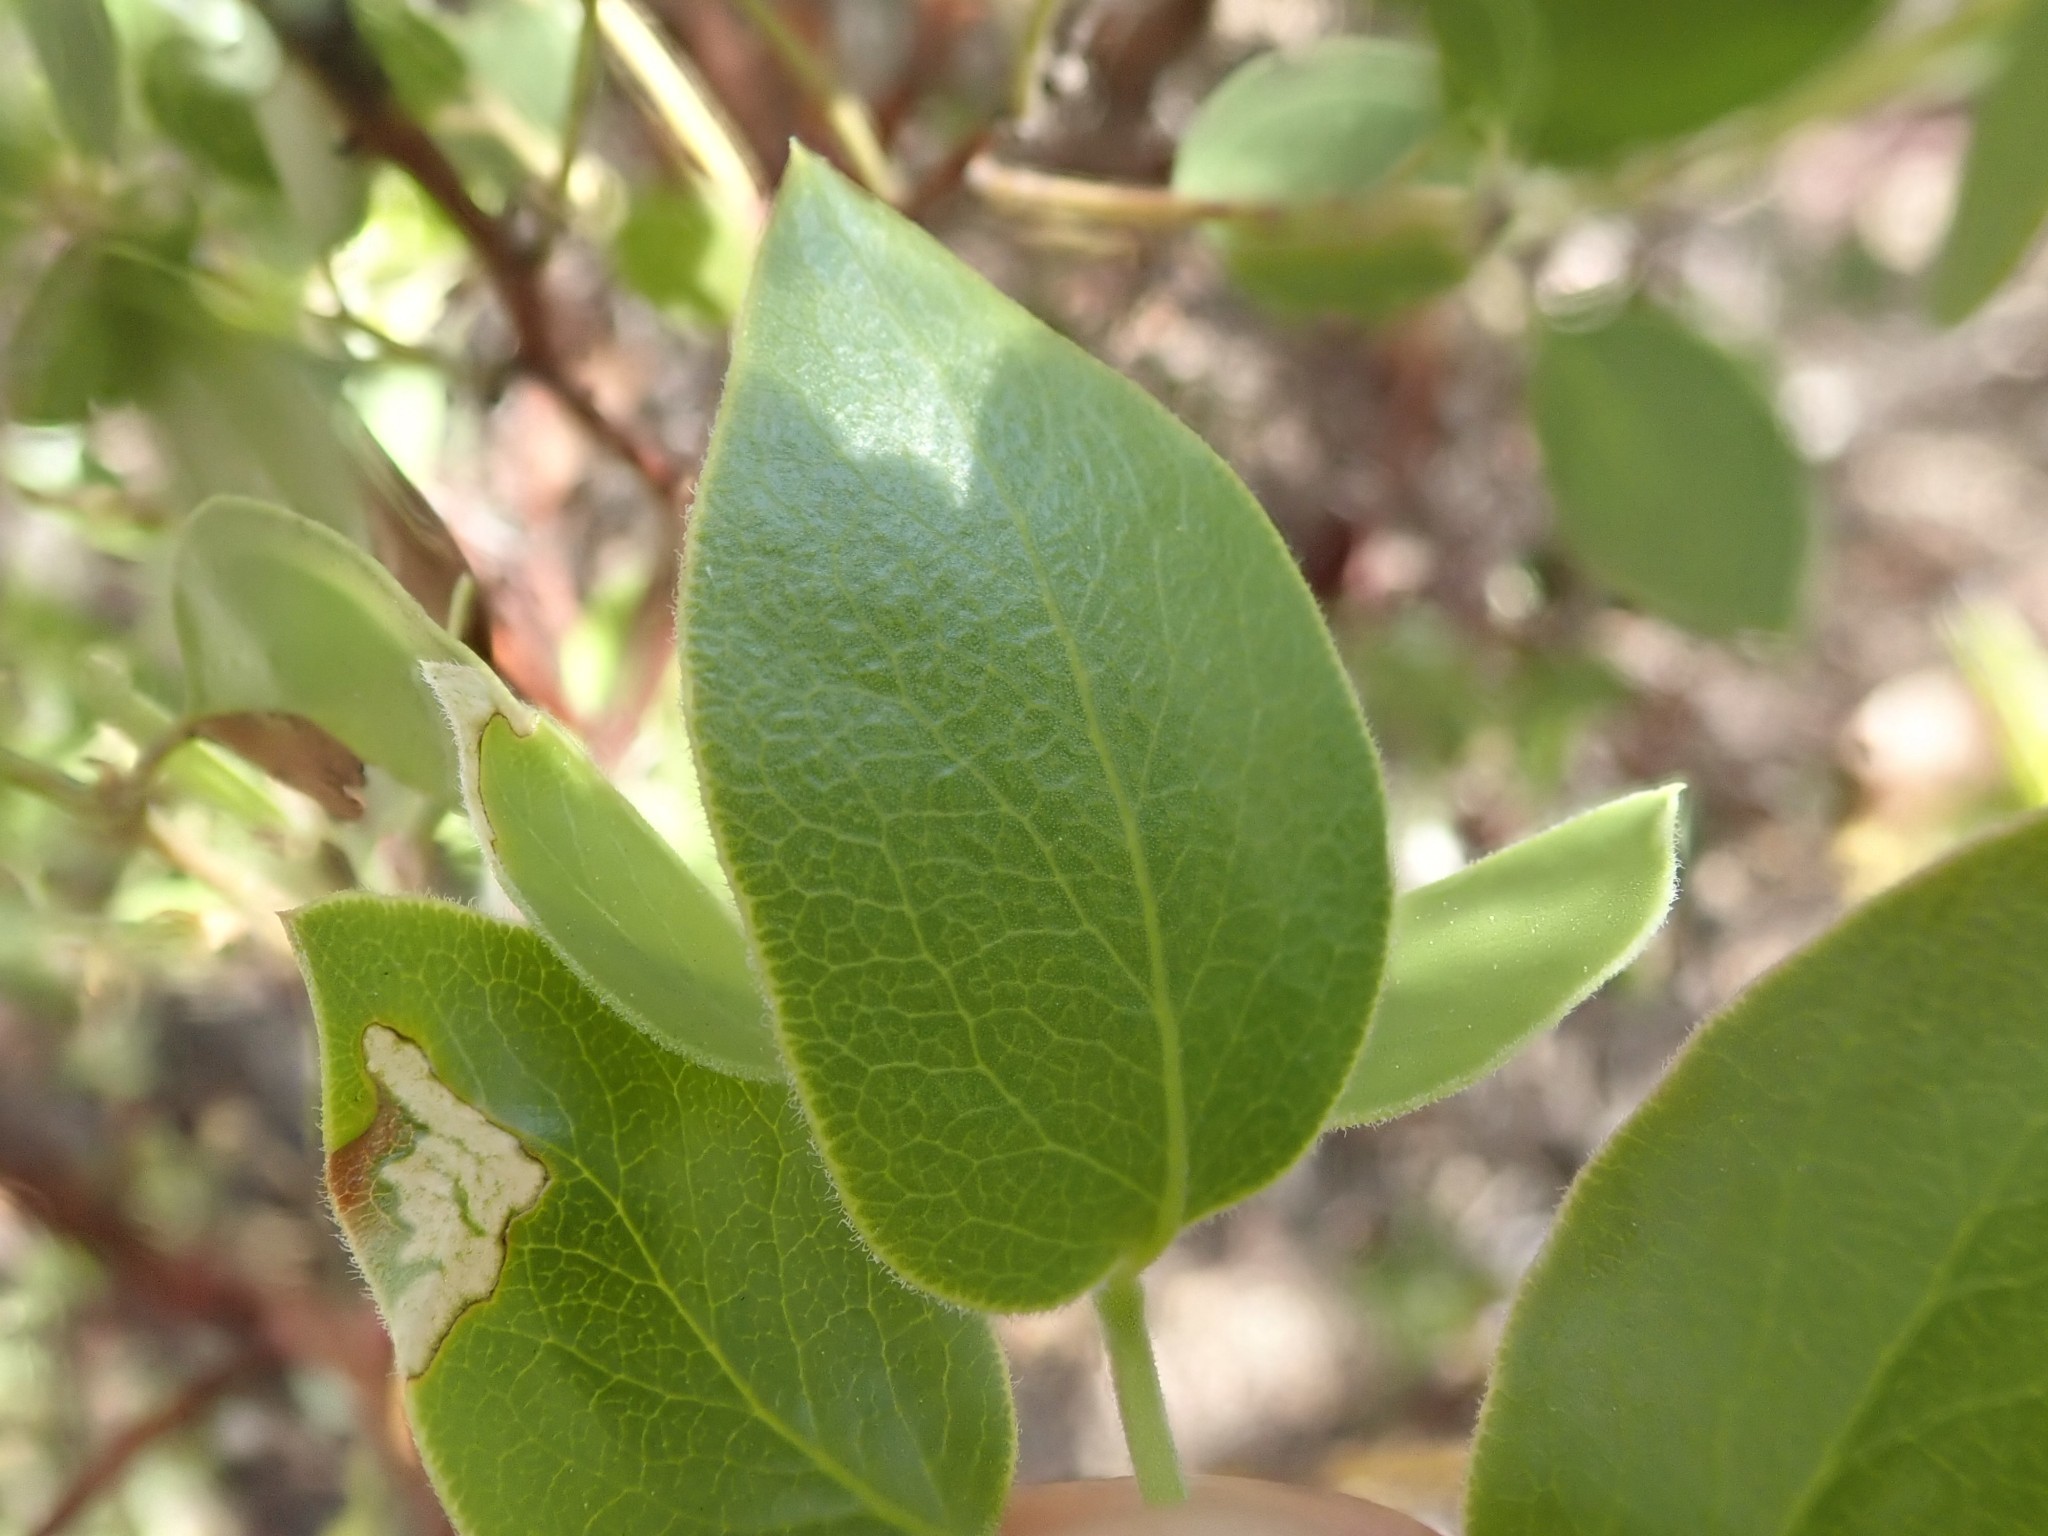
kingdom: Plantae
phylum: Tracheophyta
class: Magnoliopsida
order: Ericales
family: Ericaceae
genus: Arctostaphylos
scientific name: Arctostaphylos manzanita
